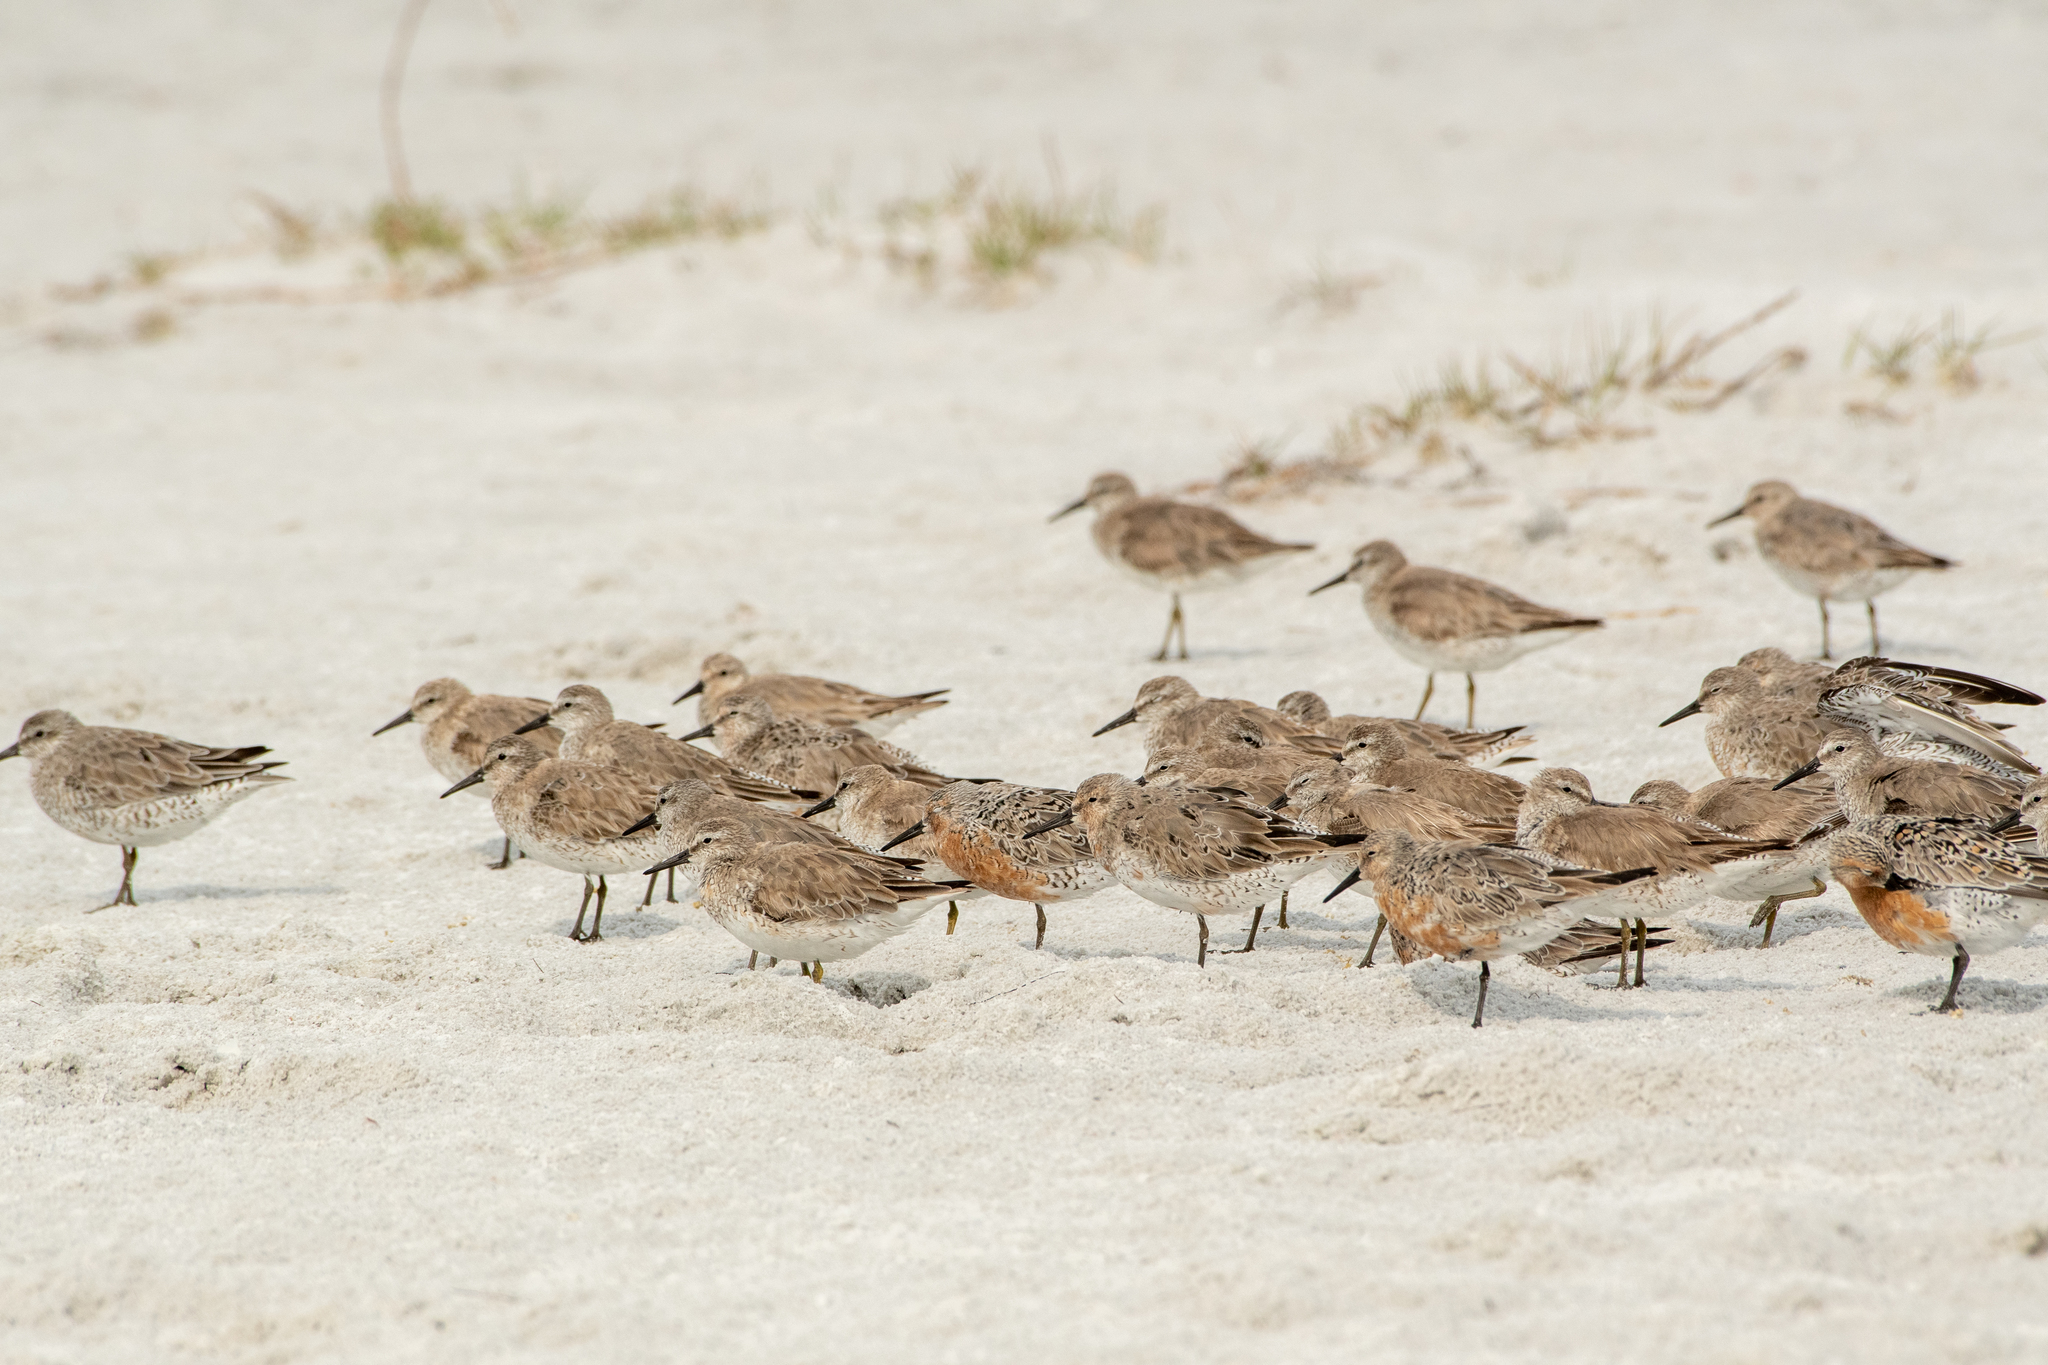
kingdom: Animalia
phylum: Chordata
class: Aves
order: Charadriiformes
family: Scolopacidae
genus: Calidris
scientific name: Calidris canutus
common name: Red knot
